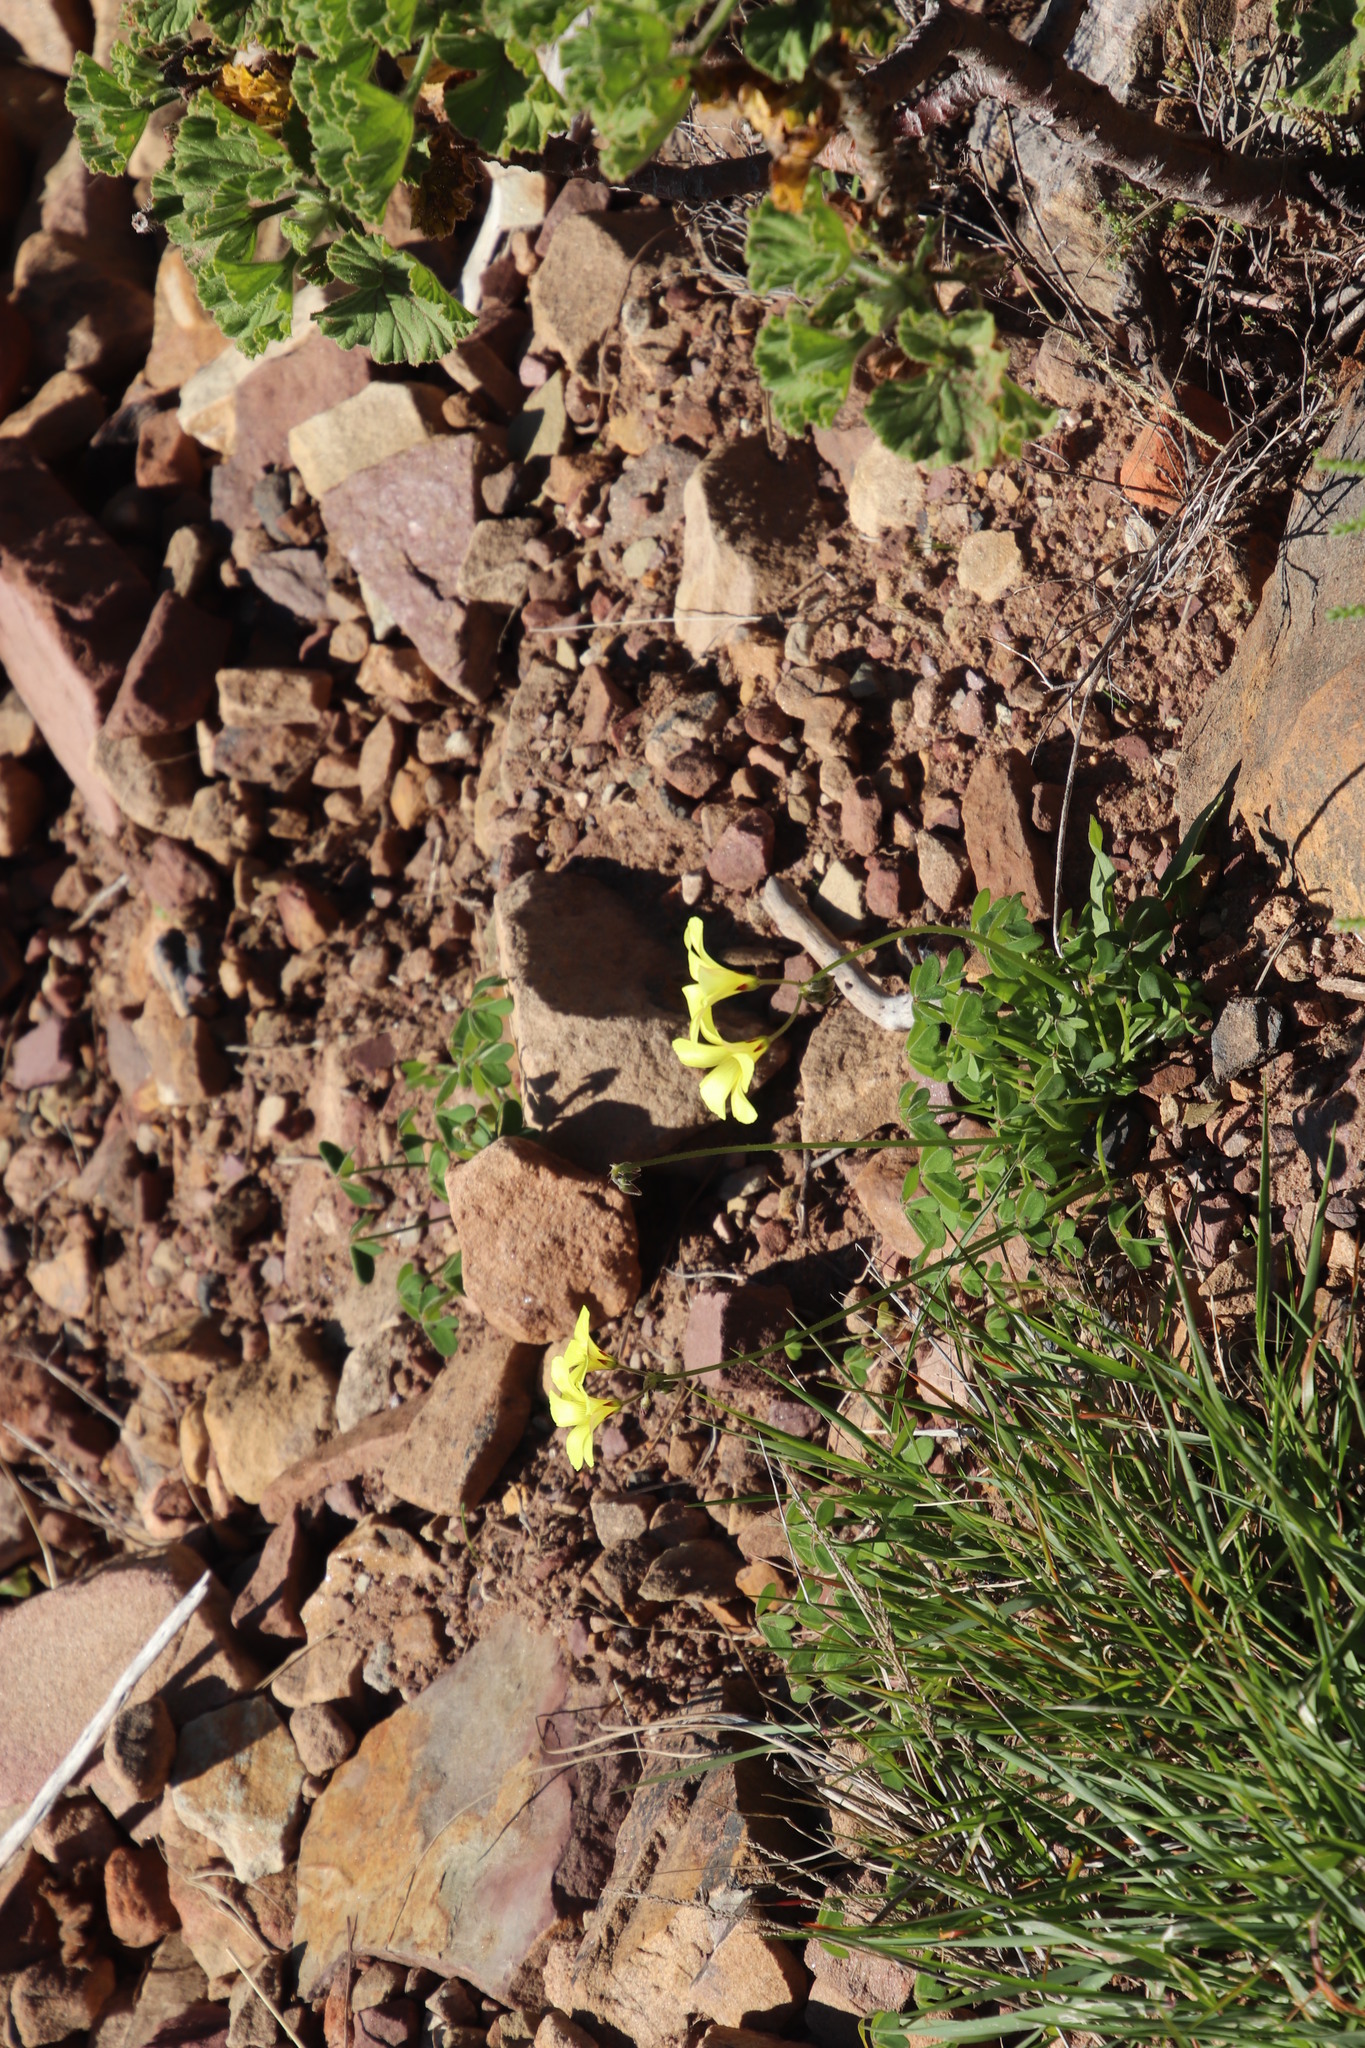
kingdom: Plantae
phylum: Tracheophyta
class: Magnoliopsida
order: Oxalidales
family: Oxalidaceae
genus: Oxalis
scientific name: Oxalis pes-caprae
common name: Bermuda-buttercup
